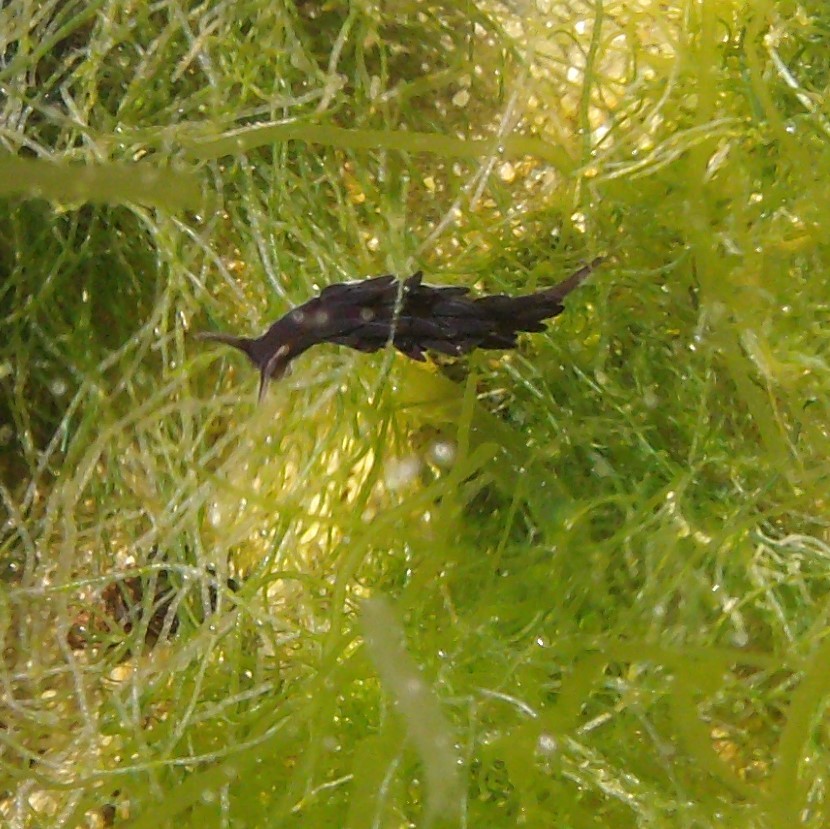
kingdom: Animalia
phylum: Mollusca
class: Gastropoda
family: Limapontiidae
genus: Ercolania
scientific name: Ercolania felina
